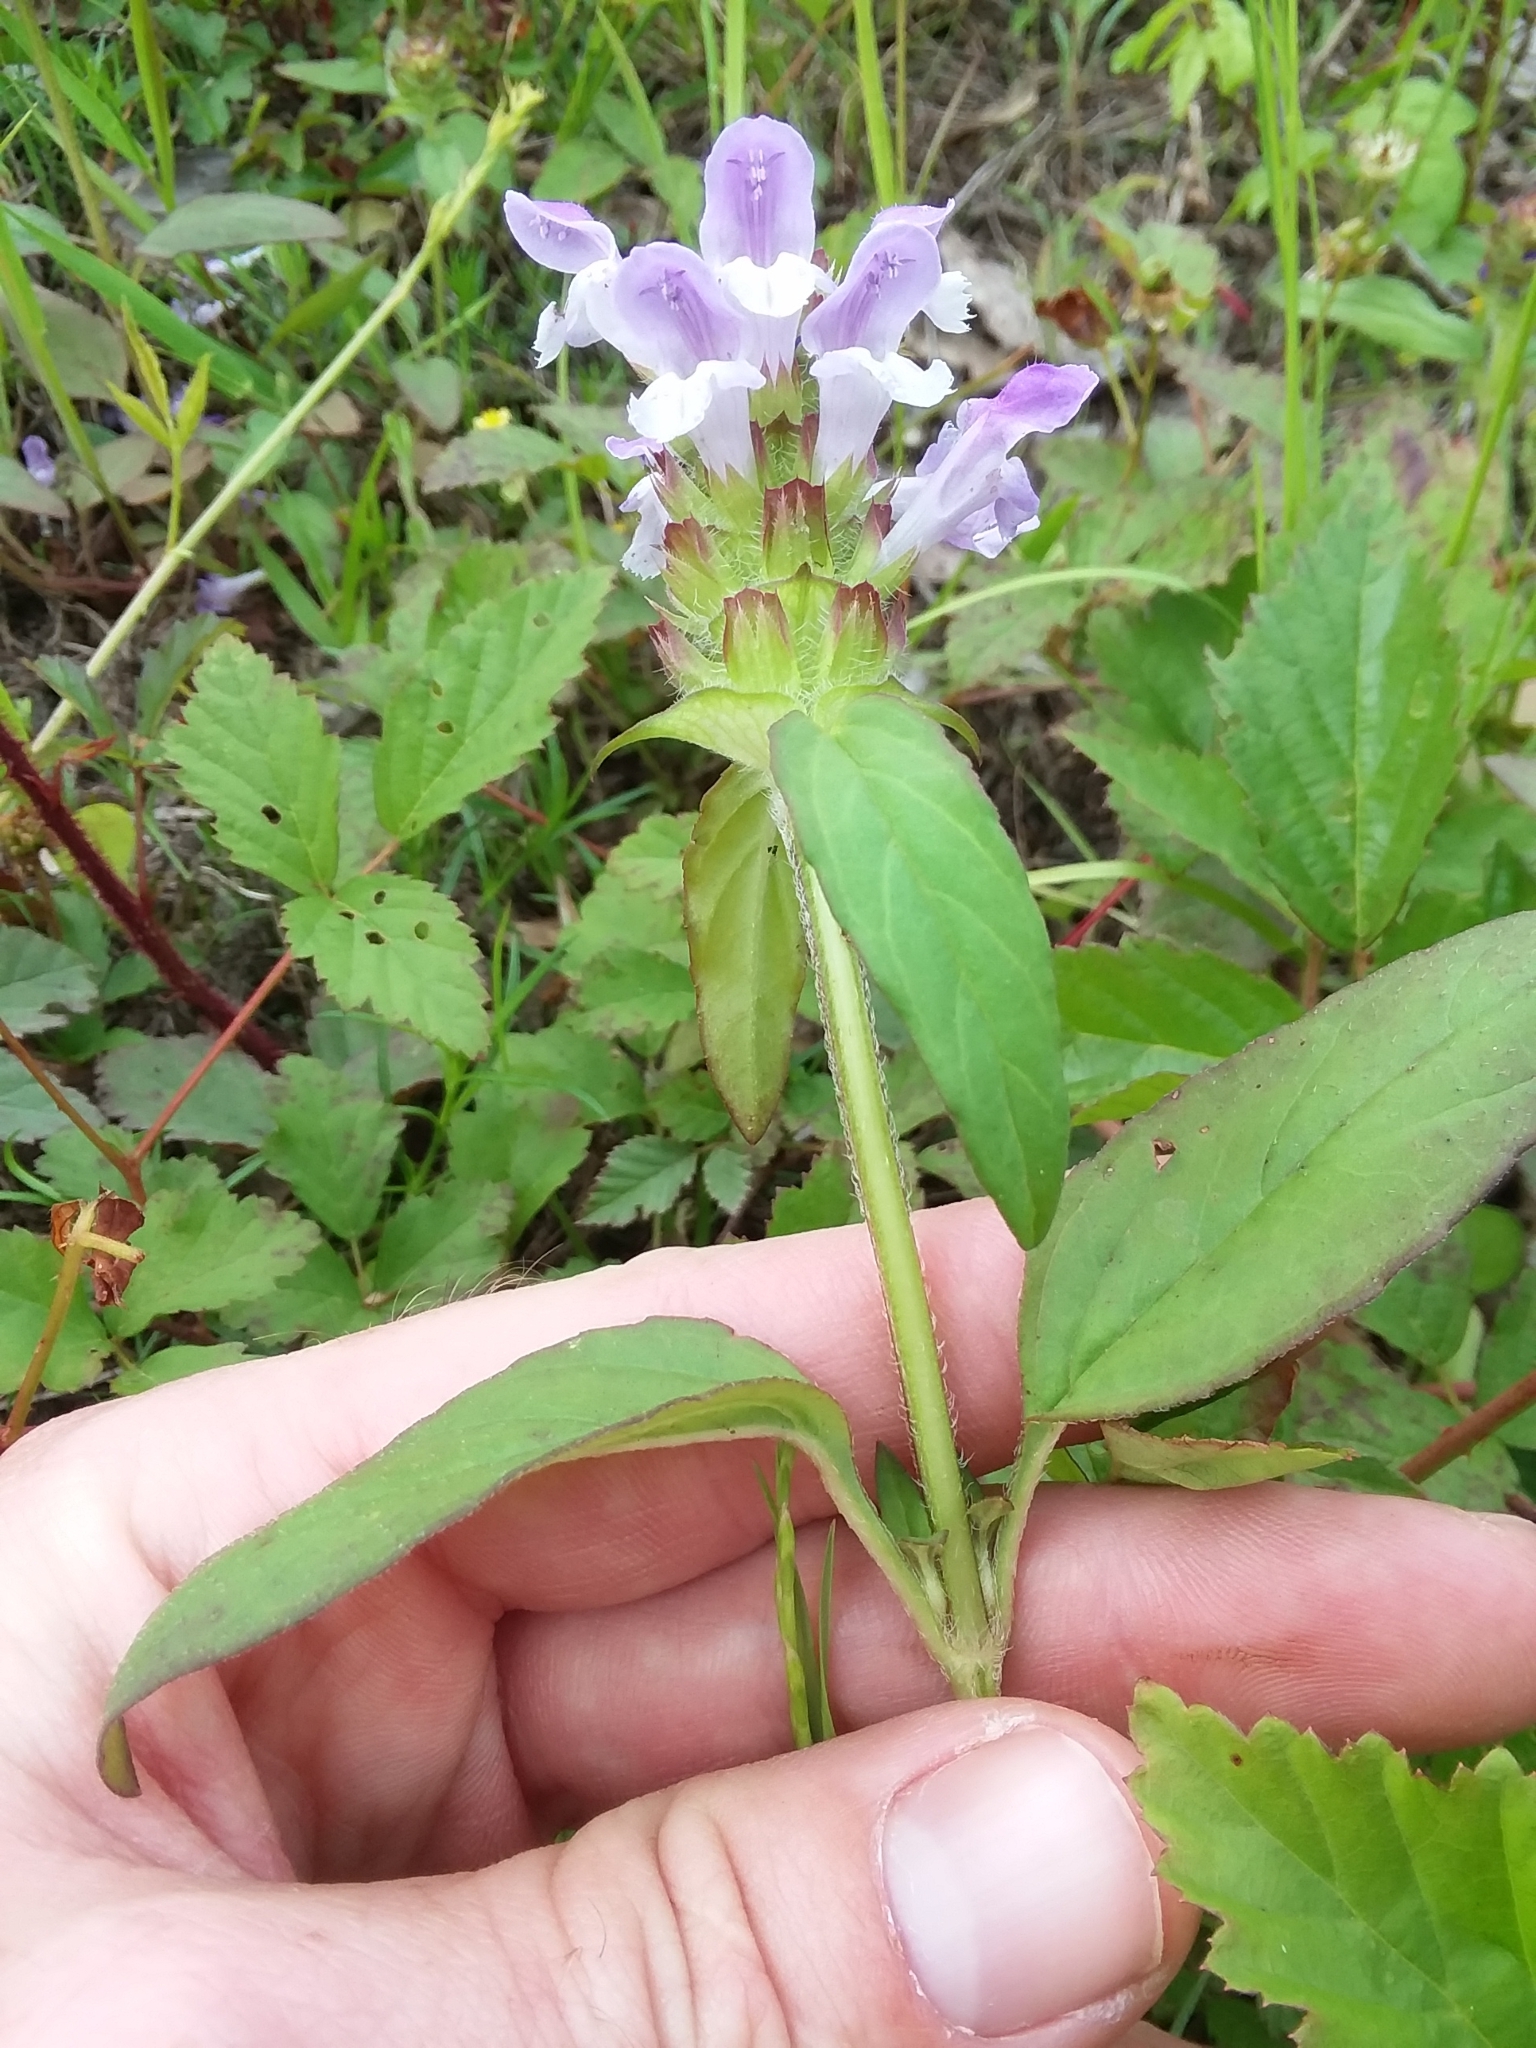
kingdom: Plantae
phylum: Tracheophyta
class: Magnoliopsida
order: Lamiales
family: Lamiaceae
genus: Prunella
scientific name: Prunella vulgaris
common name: Heal-all
